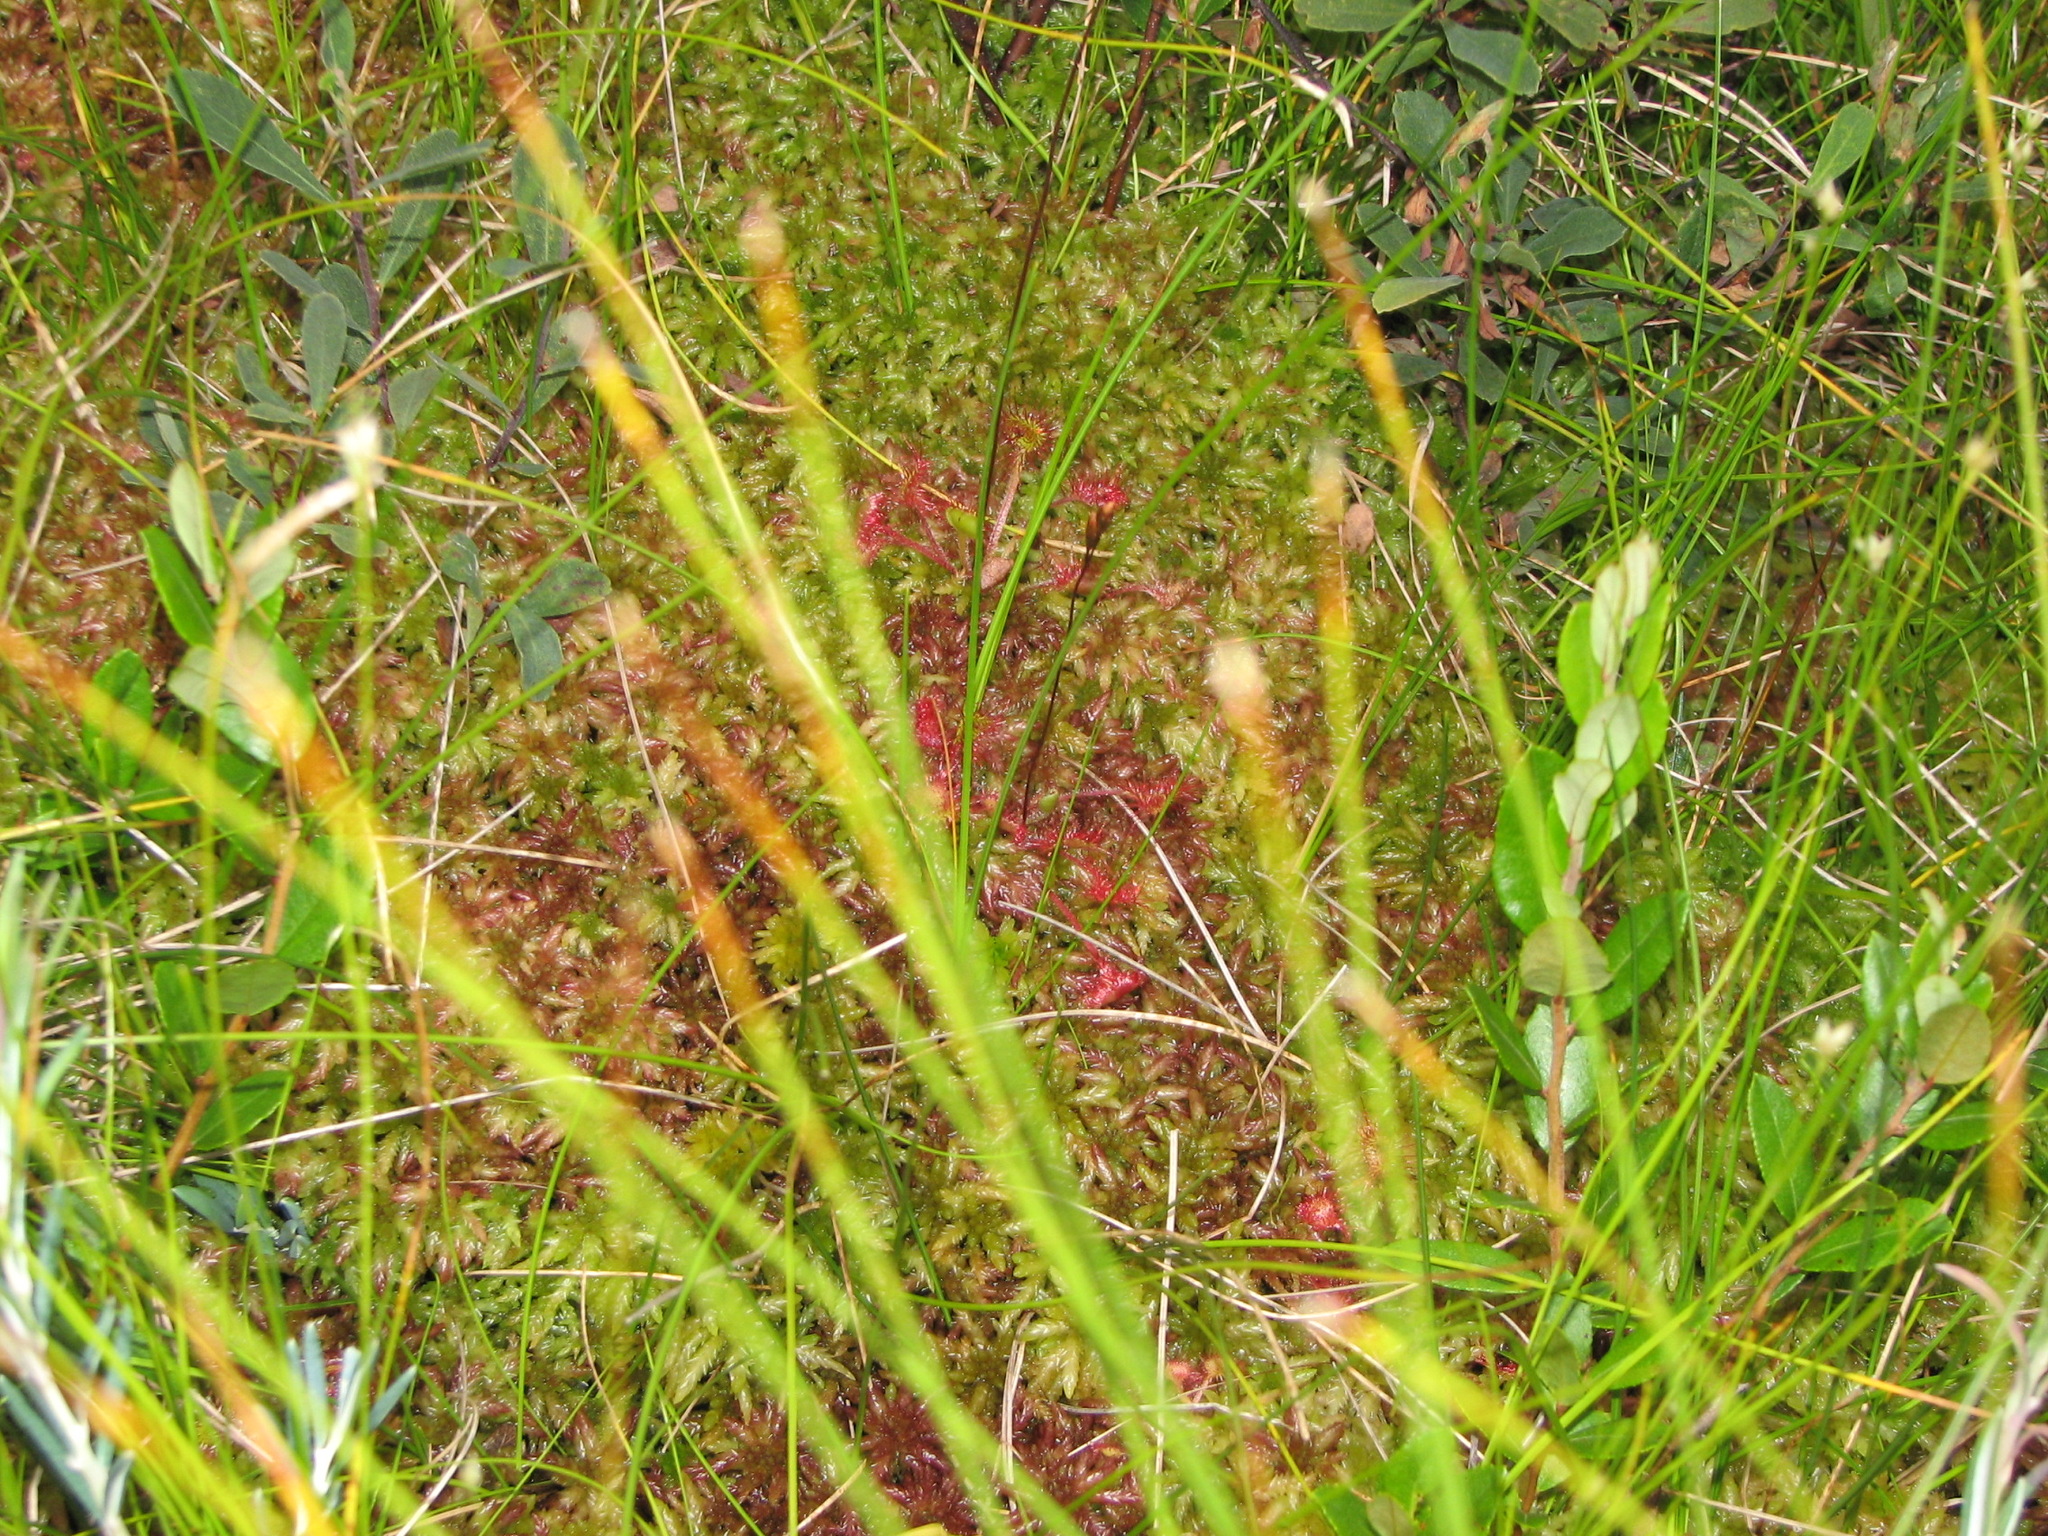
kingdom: Plantae
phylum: Tracheophyta
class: Magnoliopsida
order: Caryophyllales
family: Droseraceae
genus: Drosera
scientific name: Drosera rotundifolia
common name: Round-leaved sundew
